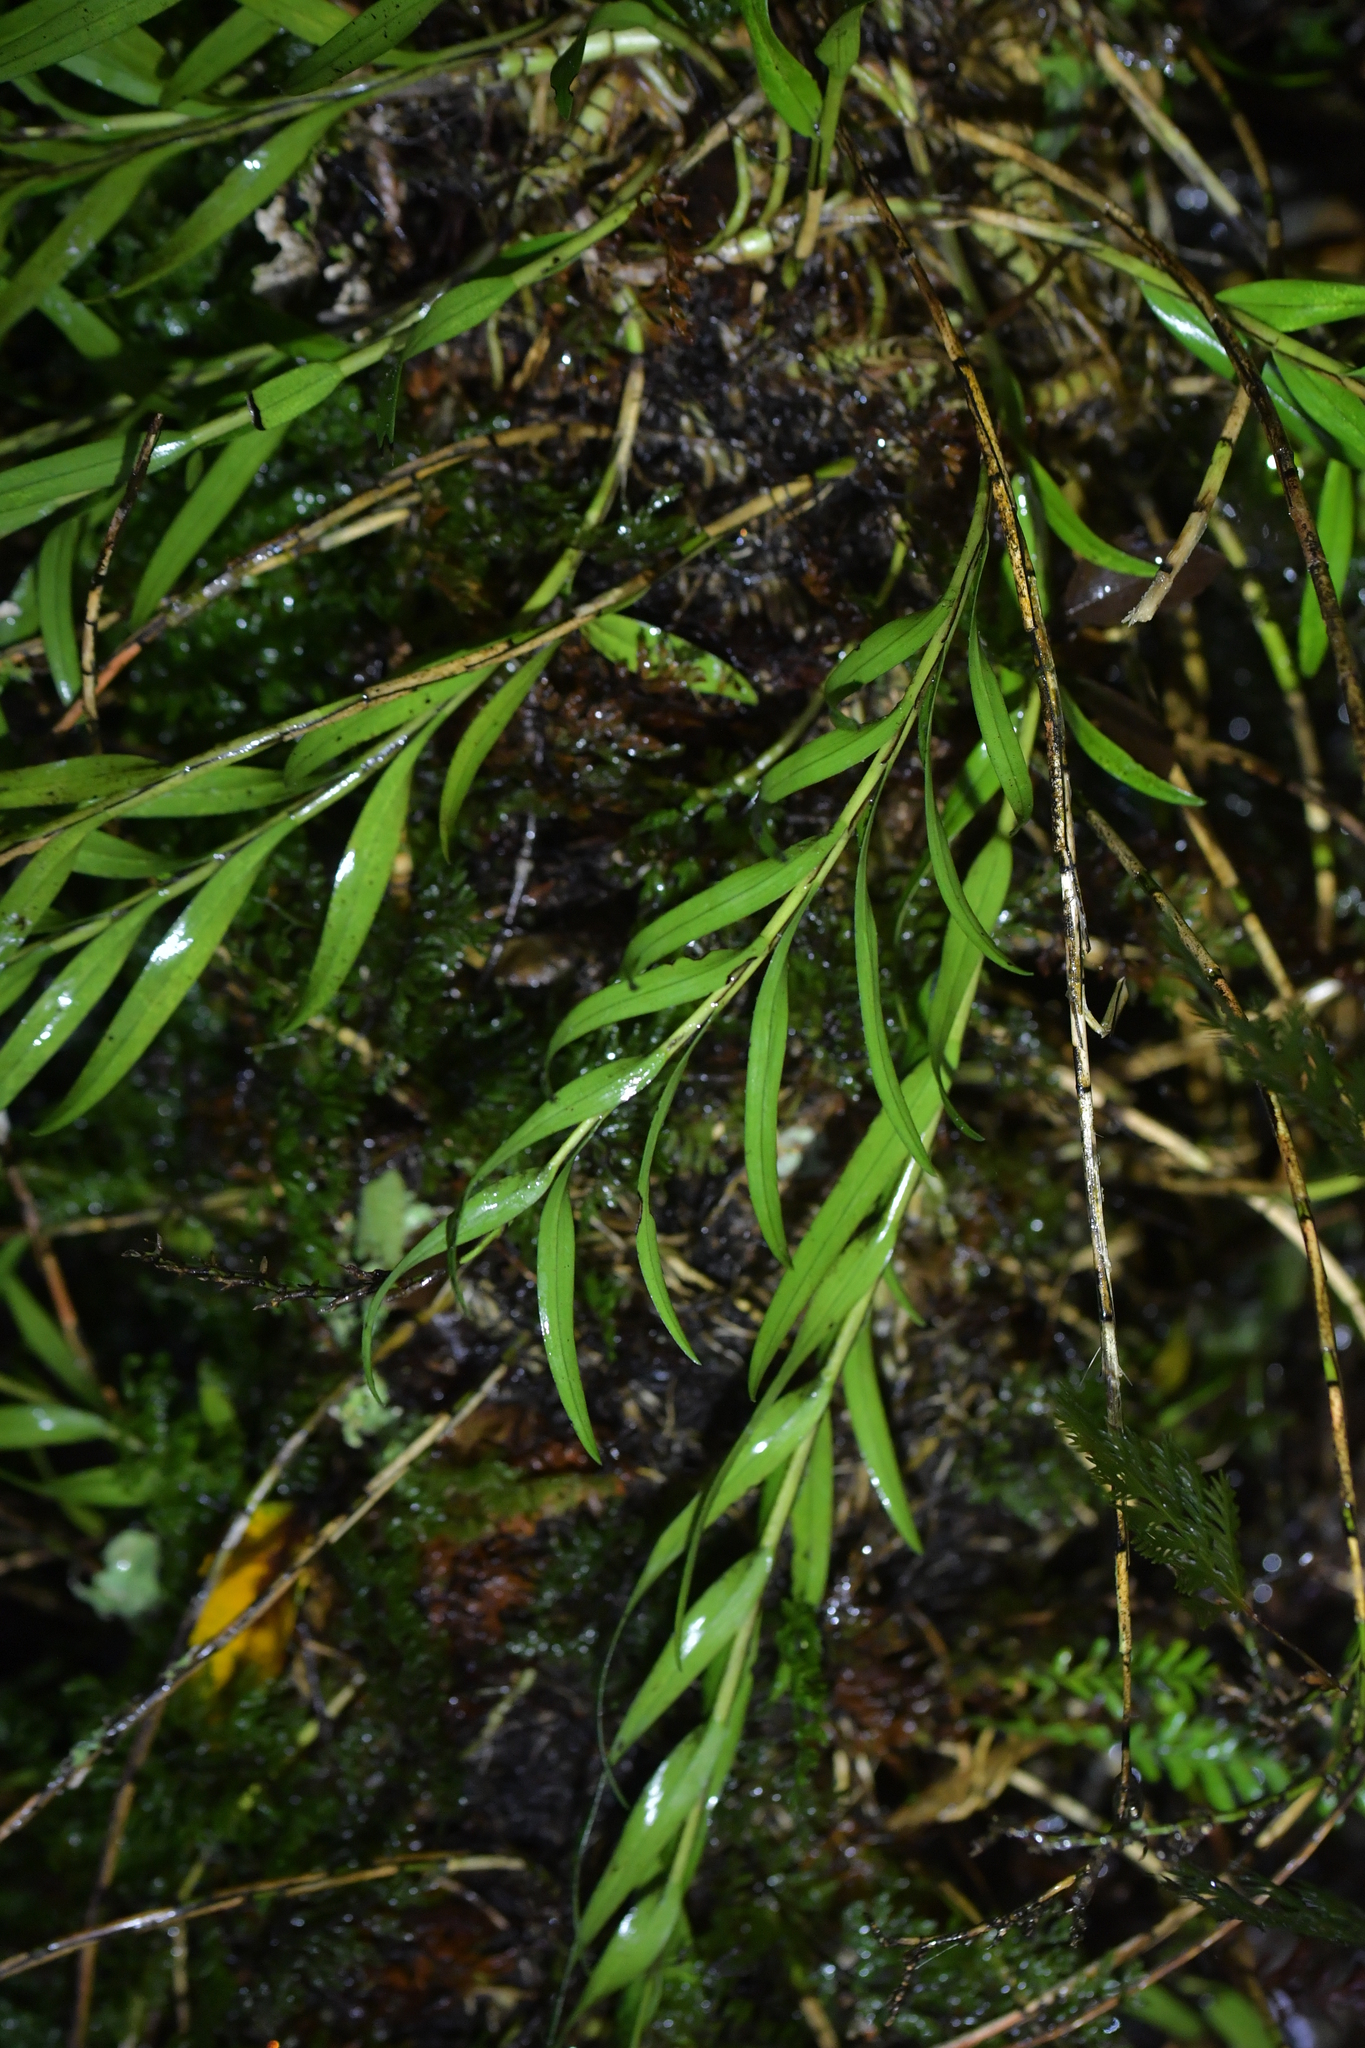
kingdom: Plantae
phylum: Tracheophyta
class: Liliopsida
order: Asparagales
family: Orchidaceae
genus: Earina
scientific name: Earina autumnalis
